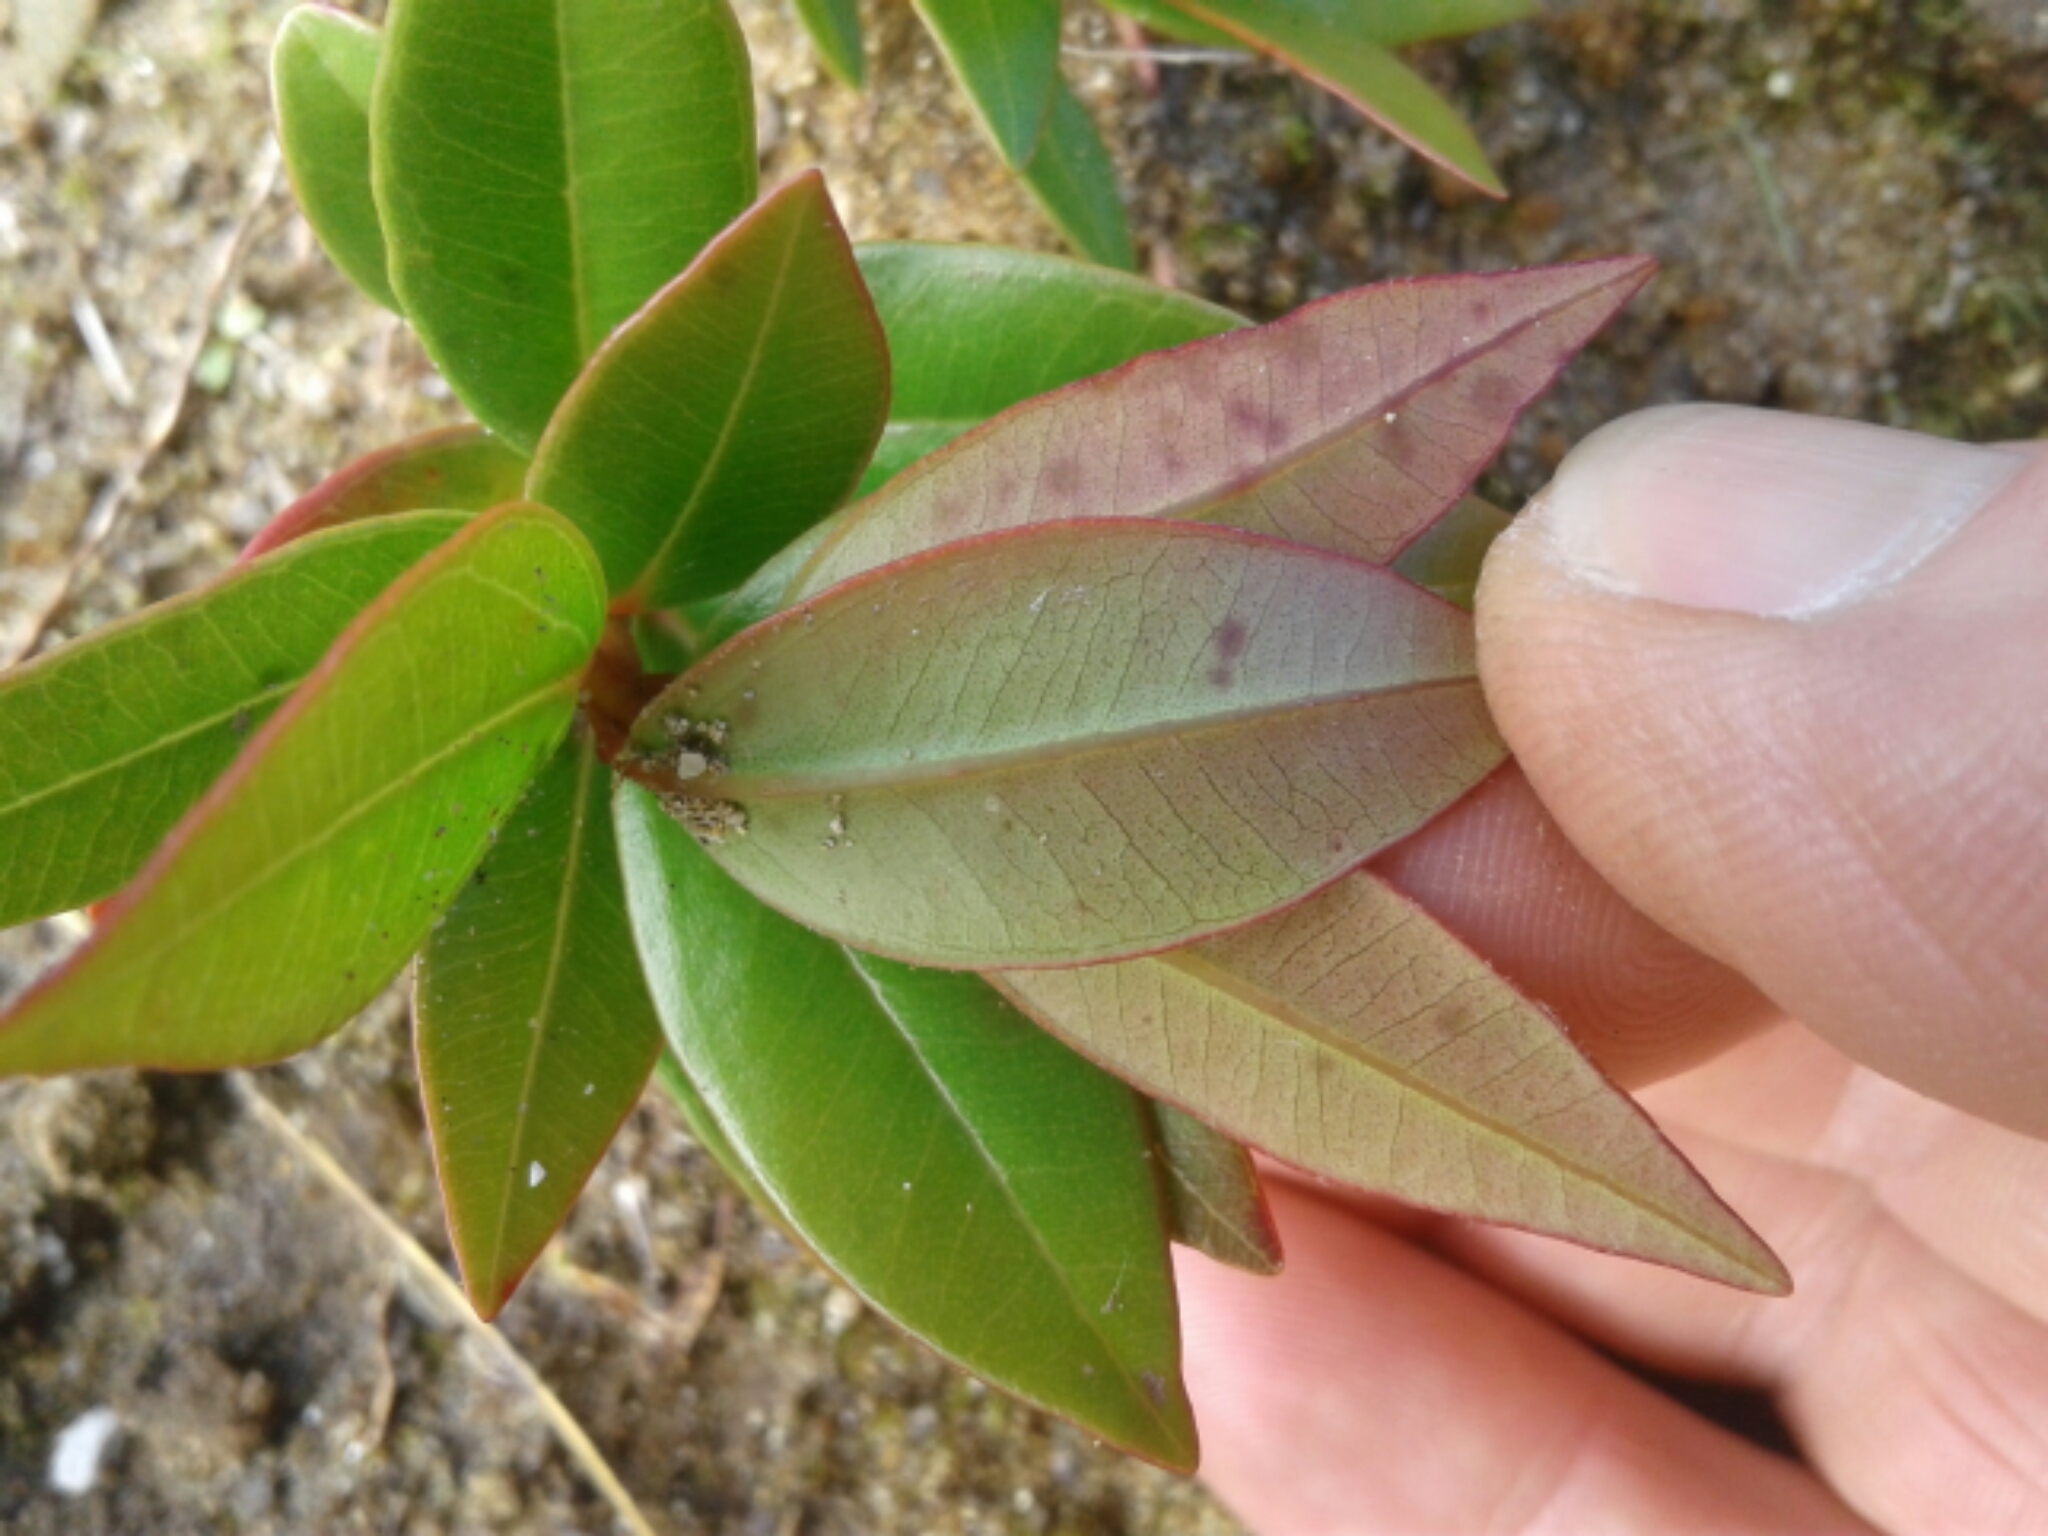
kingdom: Plantae
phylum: Tracheophyta
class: Magnoliopsida
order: Myrtales
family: Myrtaceae
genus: Metrosideros
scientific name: Metrosideros umbellata
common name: Southern rata
